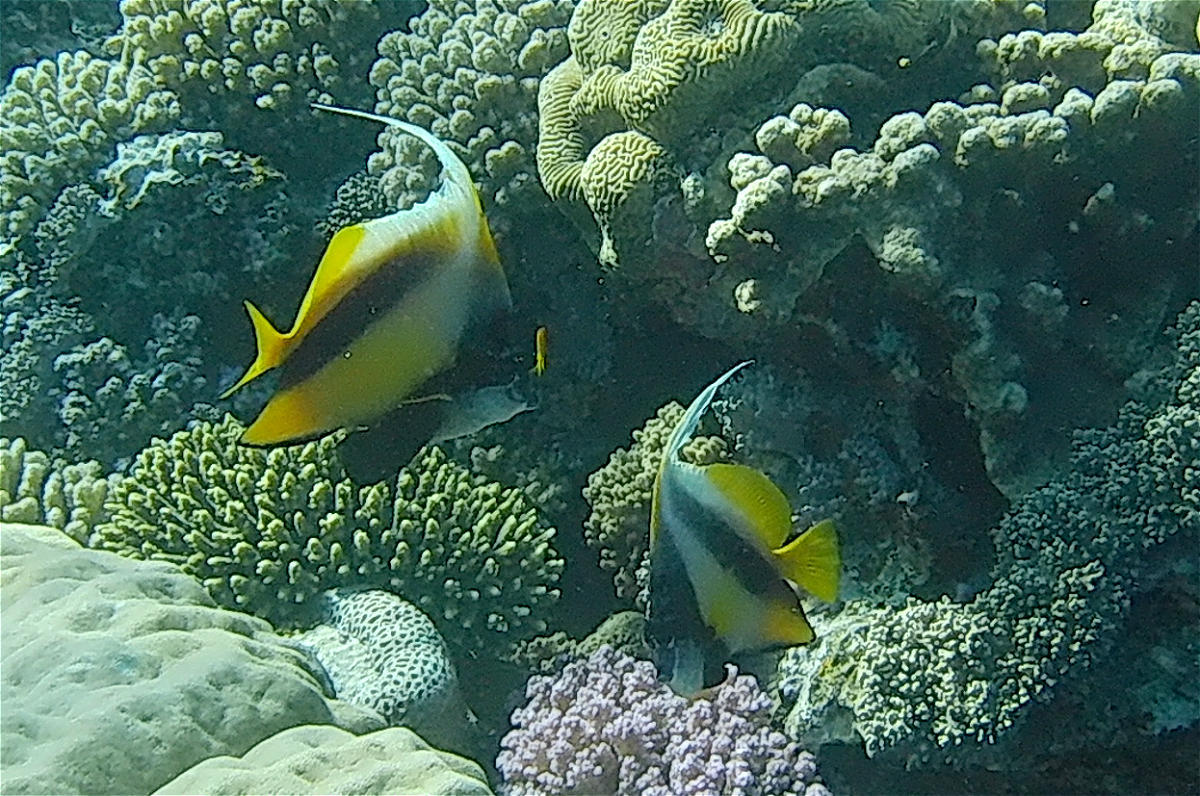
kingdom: Animalia
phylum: Chordata
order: Perciformes
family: Chaetodontidae
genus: Heniochus
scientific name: Heniochus intermedius
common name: Red sea bannerfish
